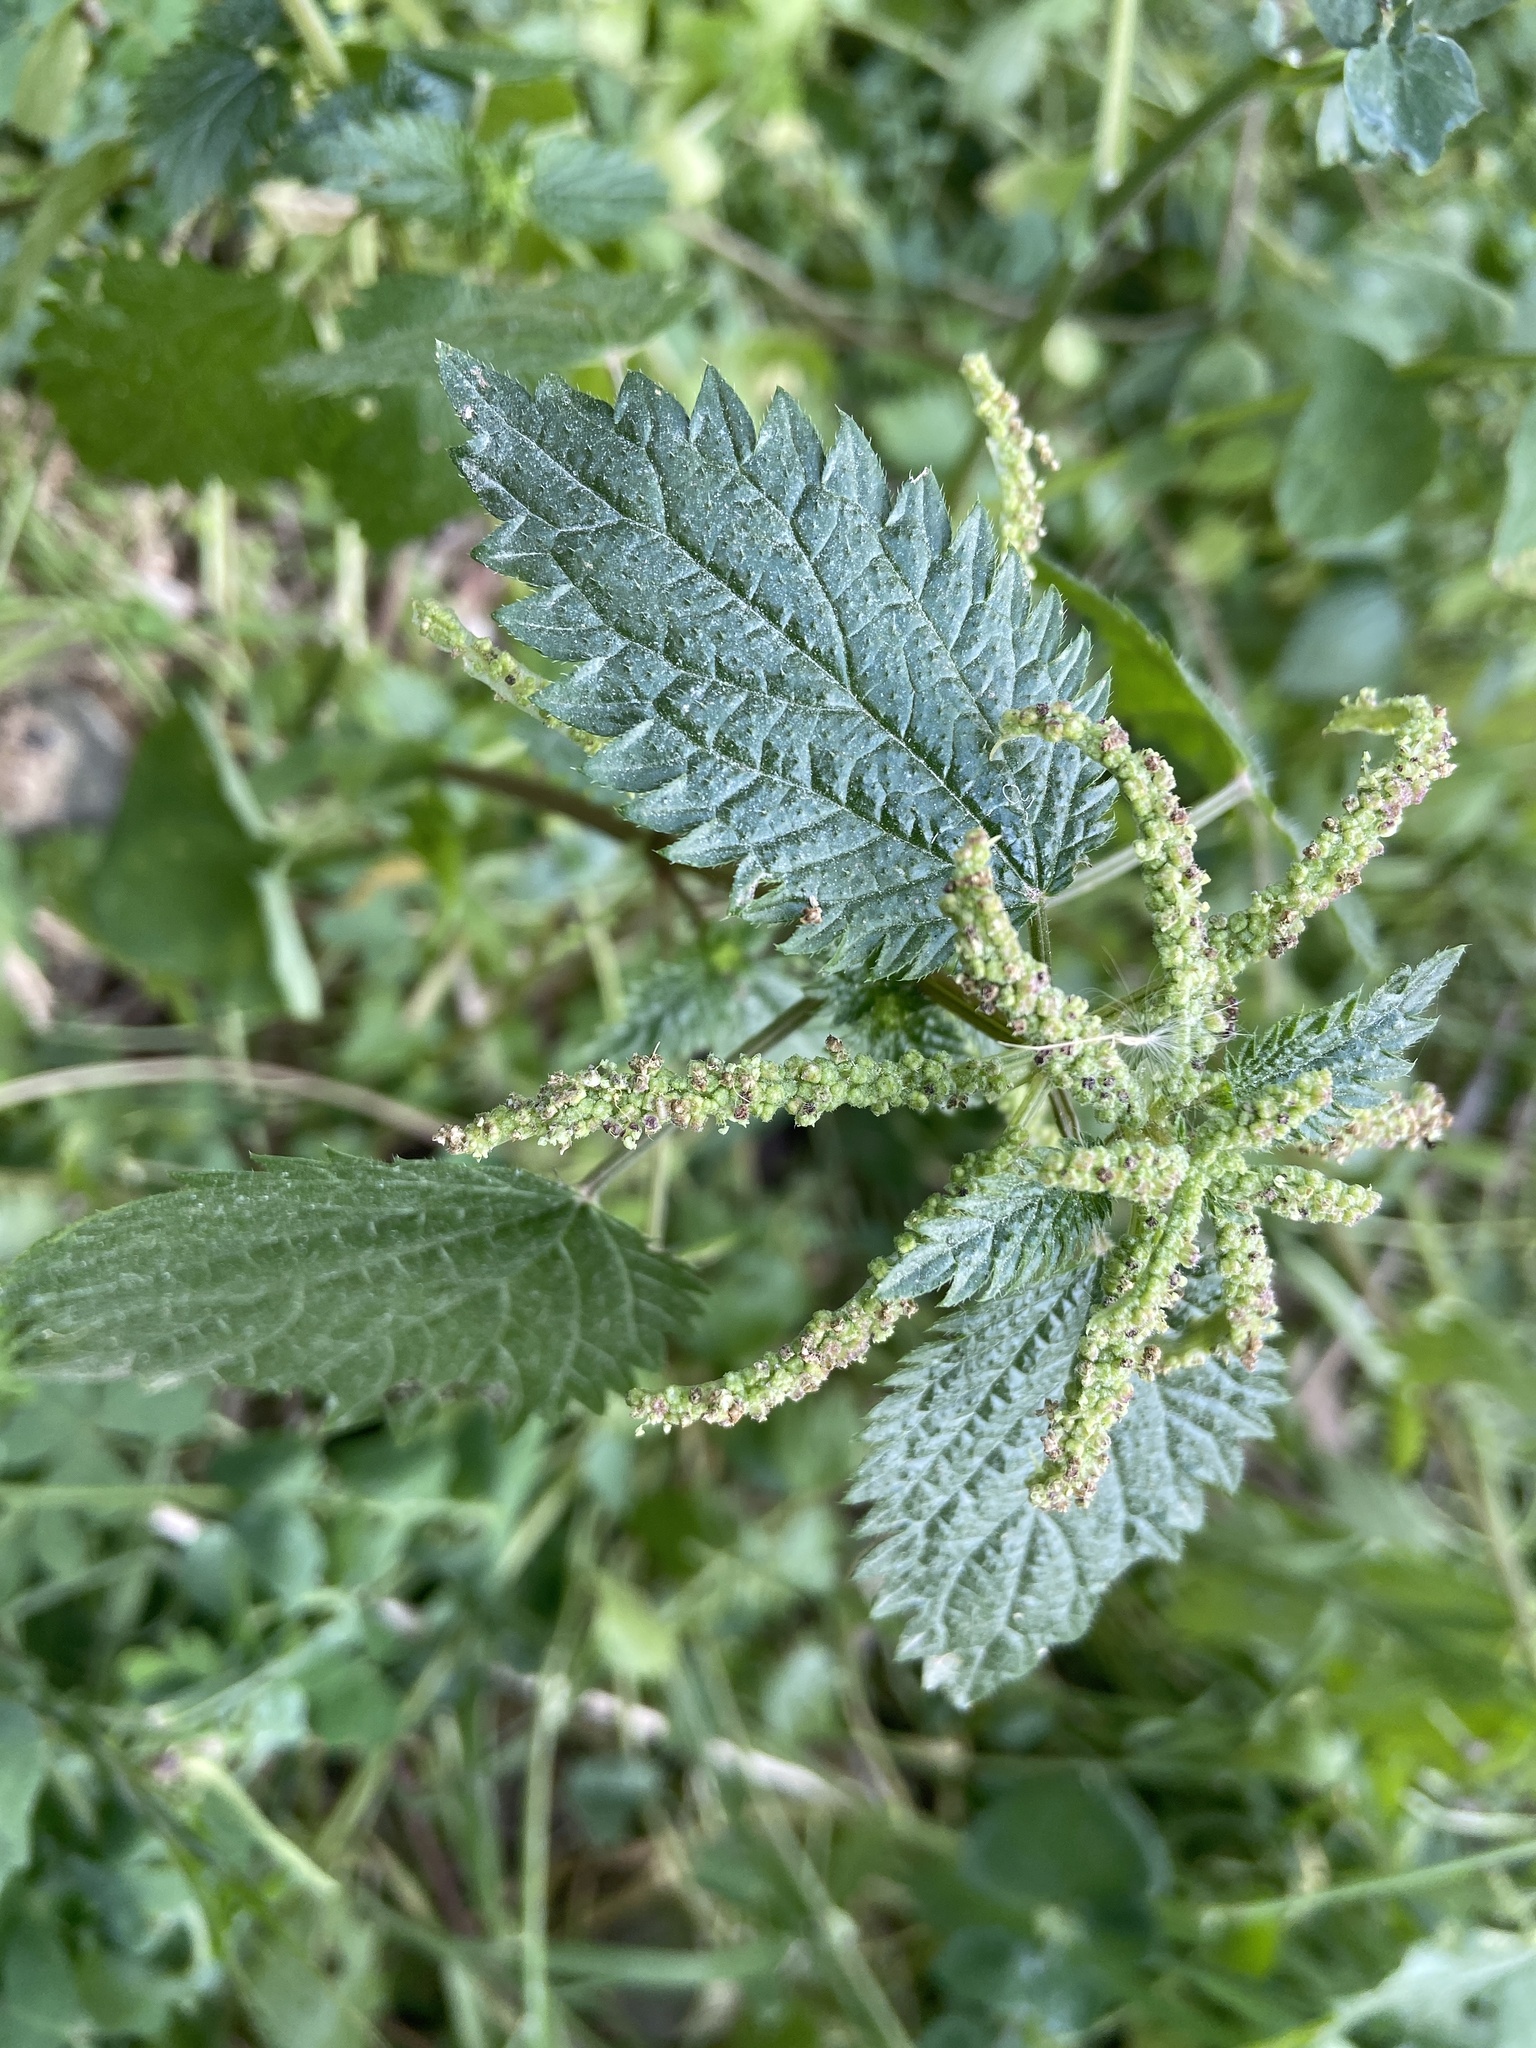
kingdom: Plantae
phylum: Tracheophyta
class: Magnoliopsida
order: Rosales
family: Urticaceae
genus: Urtica
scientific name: Urtica membranacea
